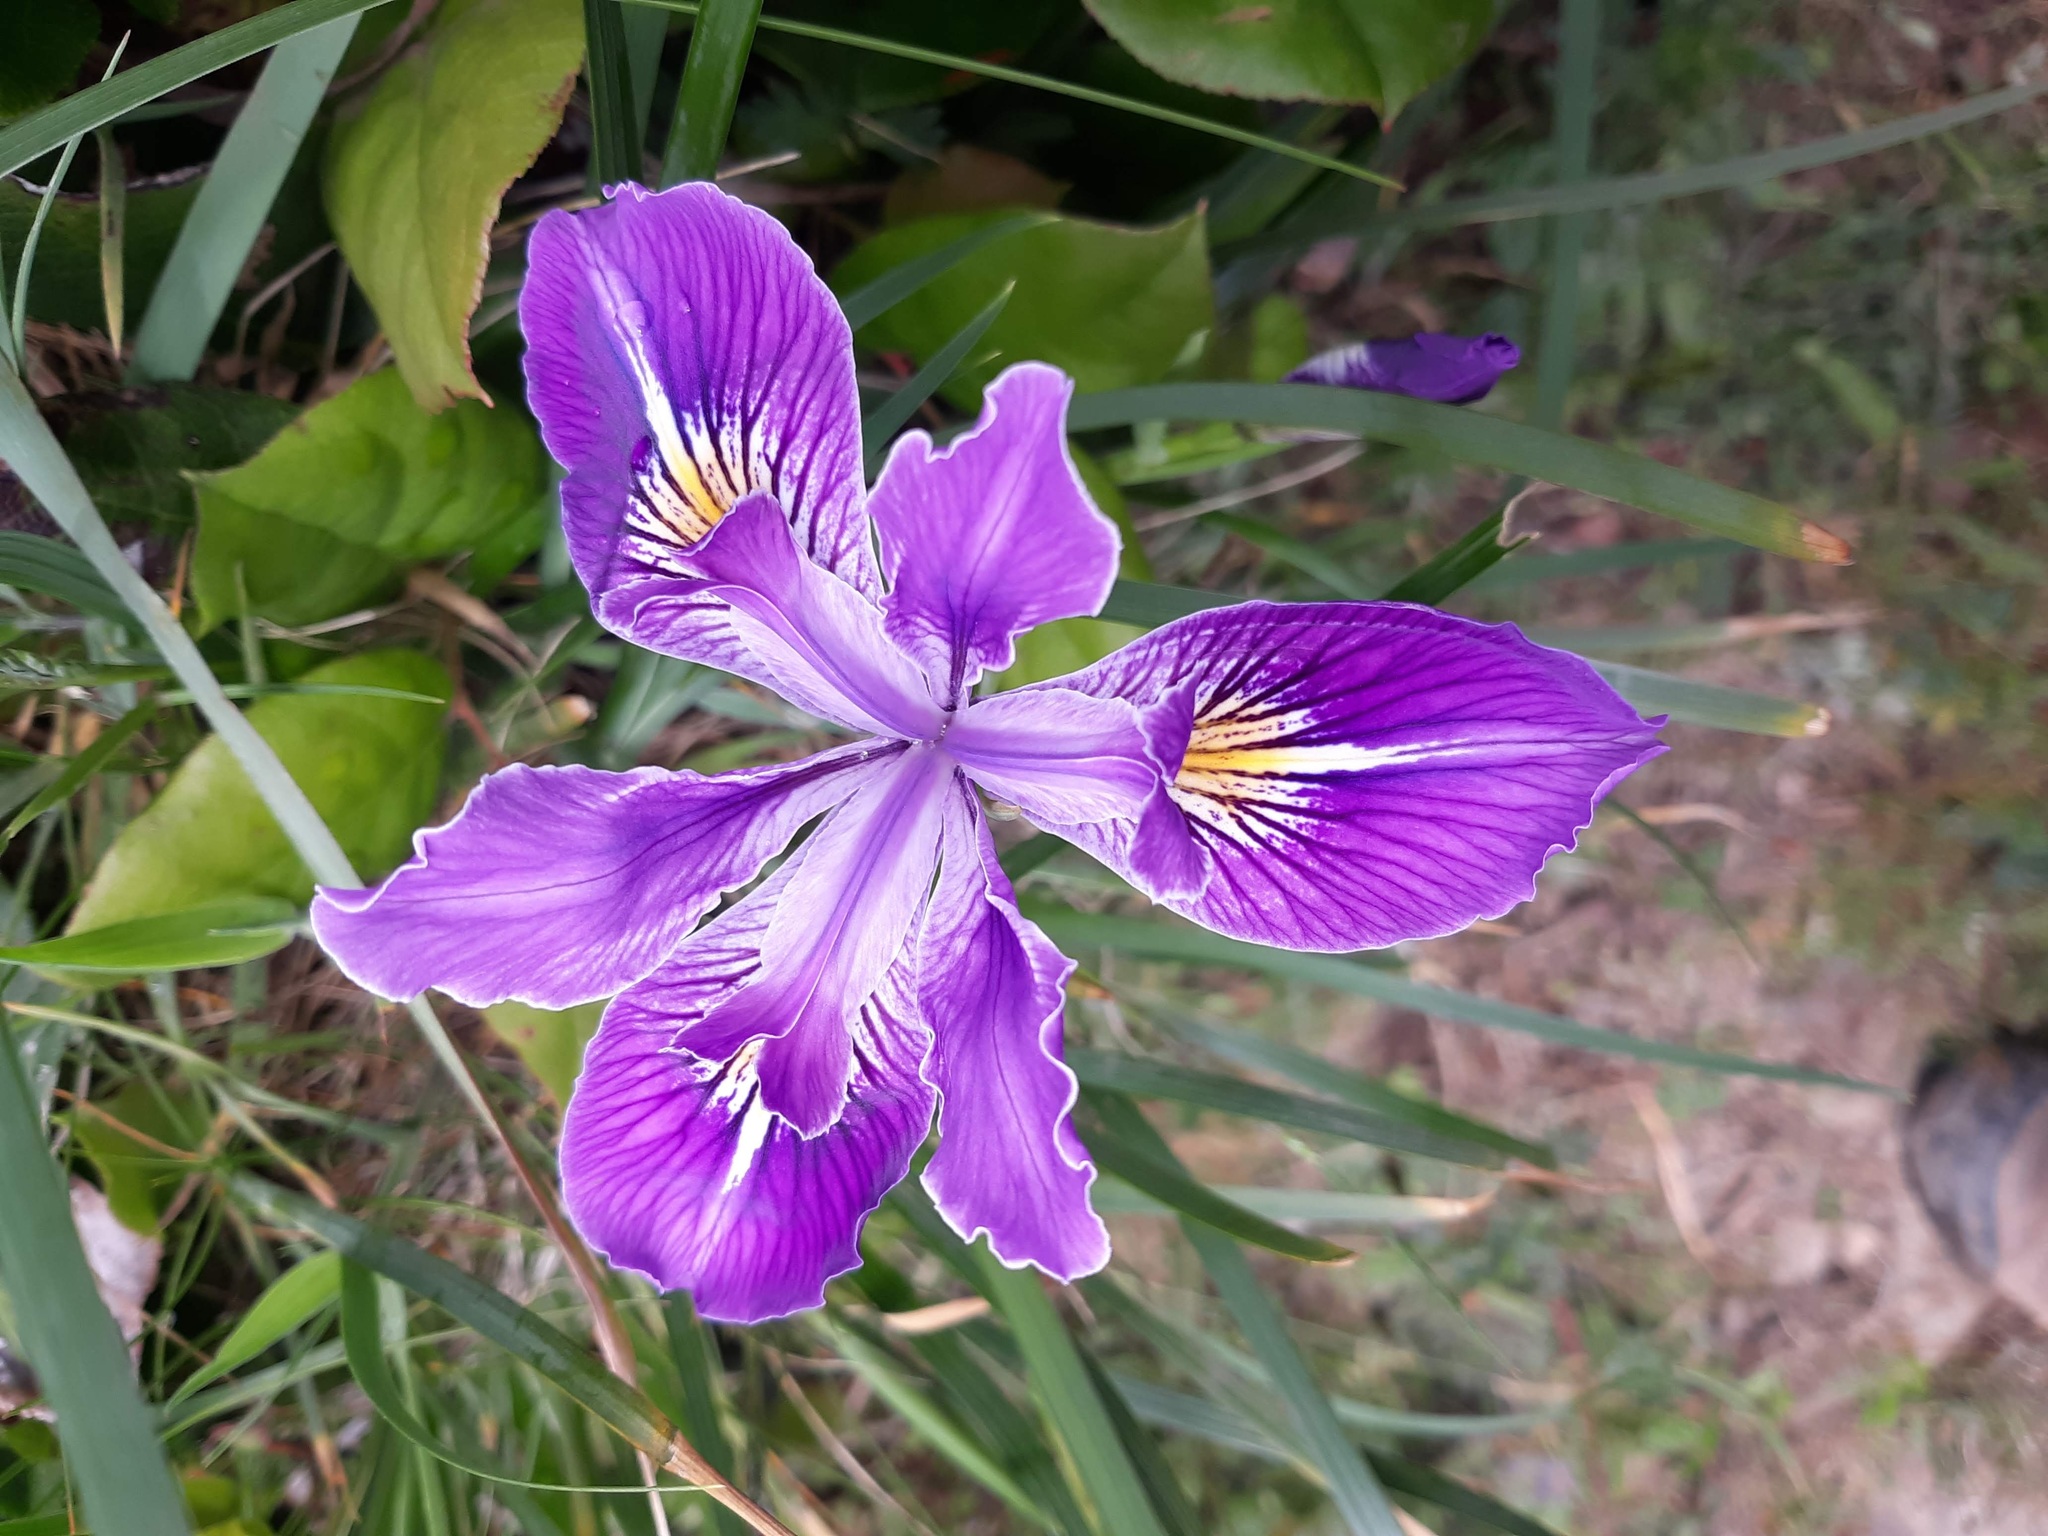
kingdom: Plantae
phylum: Tracheophyta
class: Liliopsida
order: Asparagales
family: Iridaceae
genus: Iris
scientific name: Iris tenax
